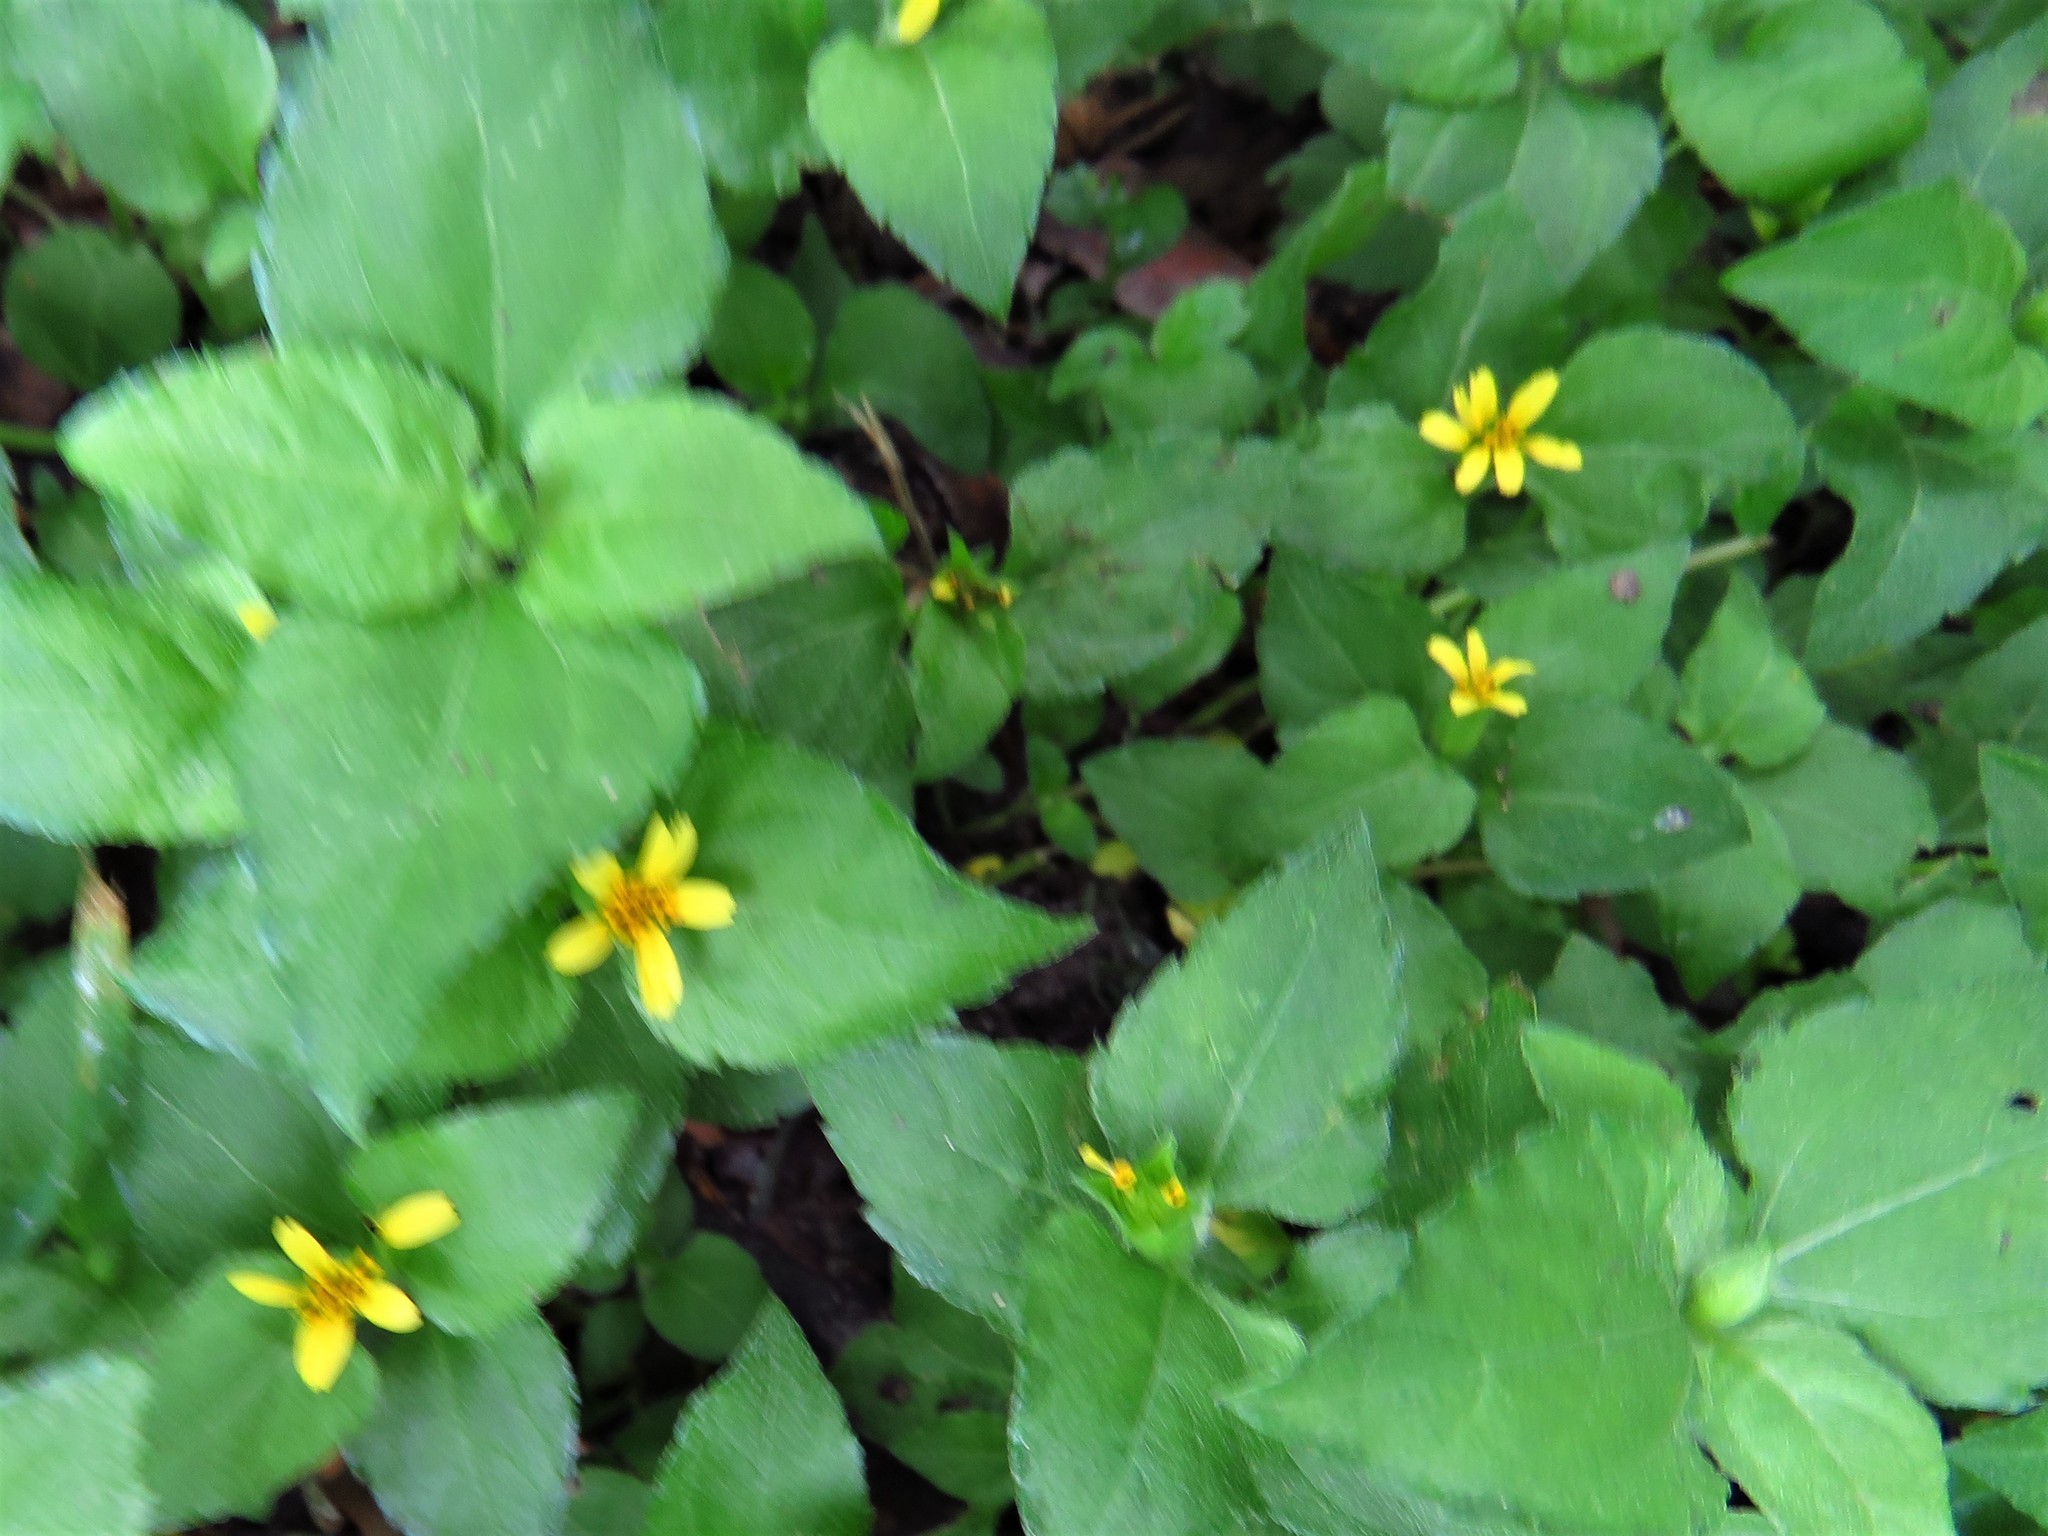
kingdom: Plantae
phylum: Tracheophyta
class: Magnoliopsida
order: Asterales
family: Asteraceae
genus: Calyptocarpus
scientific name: Calyptocarpus vialis
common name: Straggler daisy
